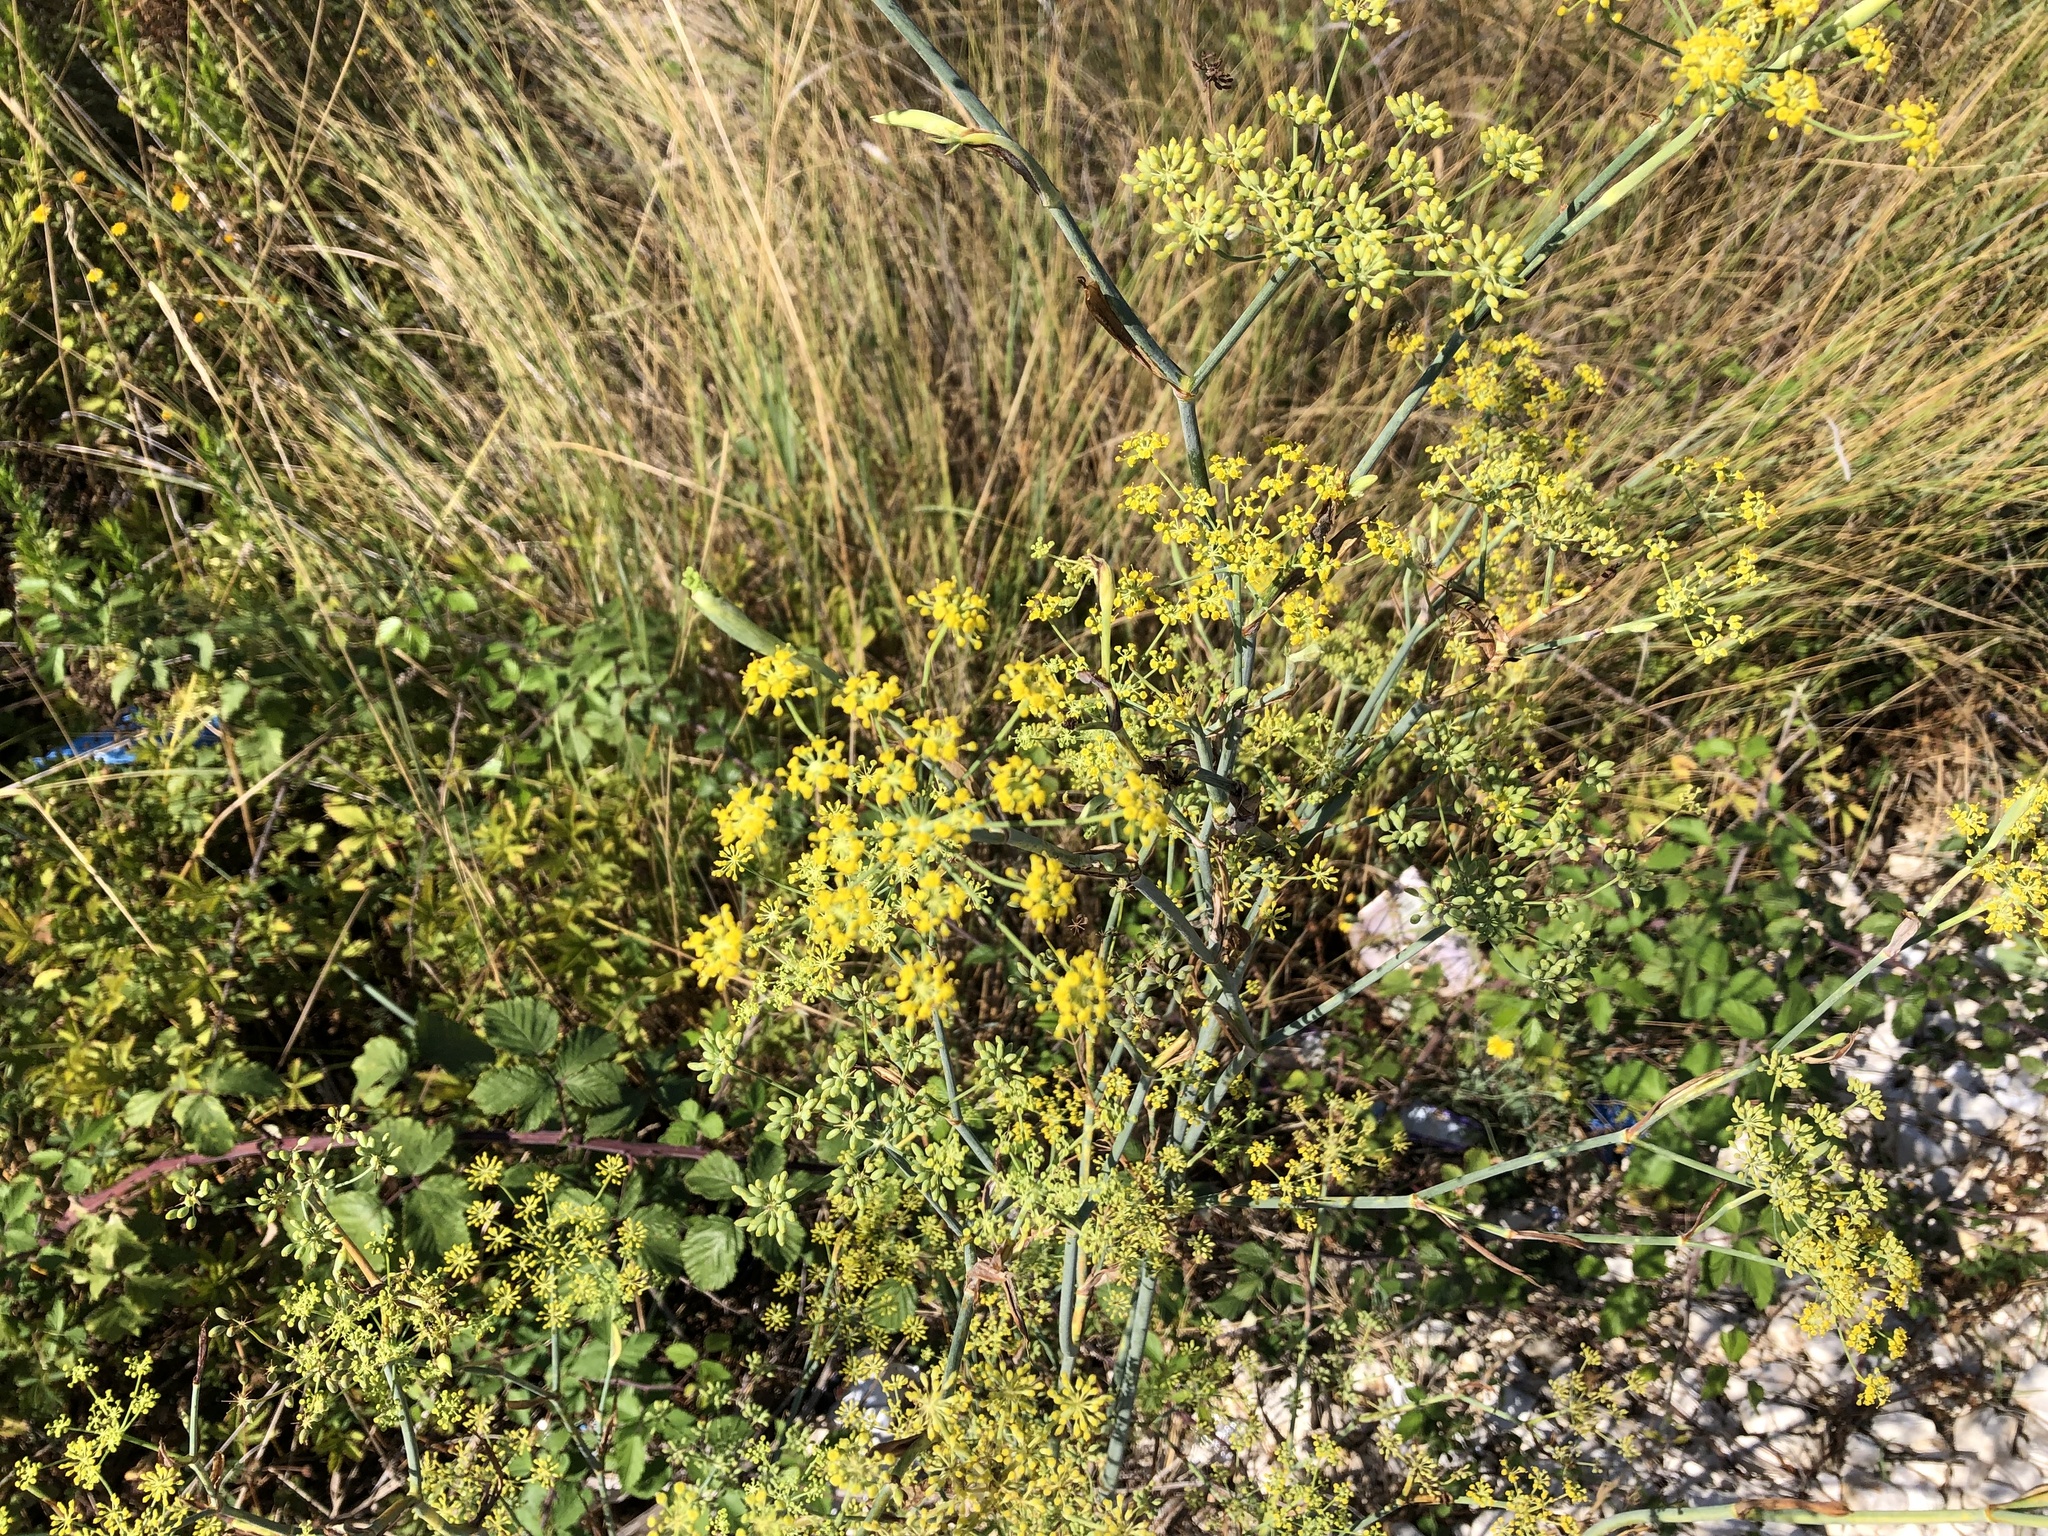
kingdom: Plantae
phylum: Tracheophyta
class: Magnoliopsida
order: Apiales
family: Apiaceae
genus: Foeniculum
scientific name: Foeniculum vulgare
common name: Fennel
